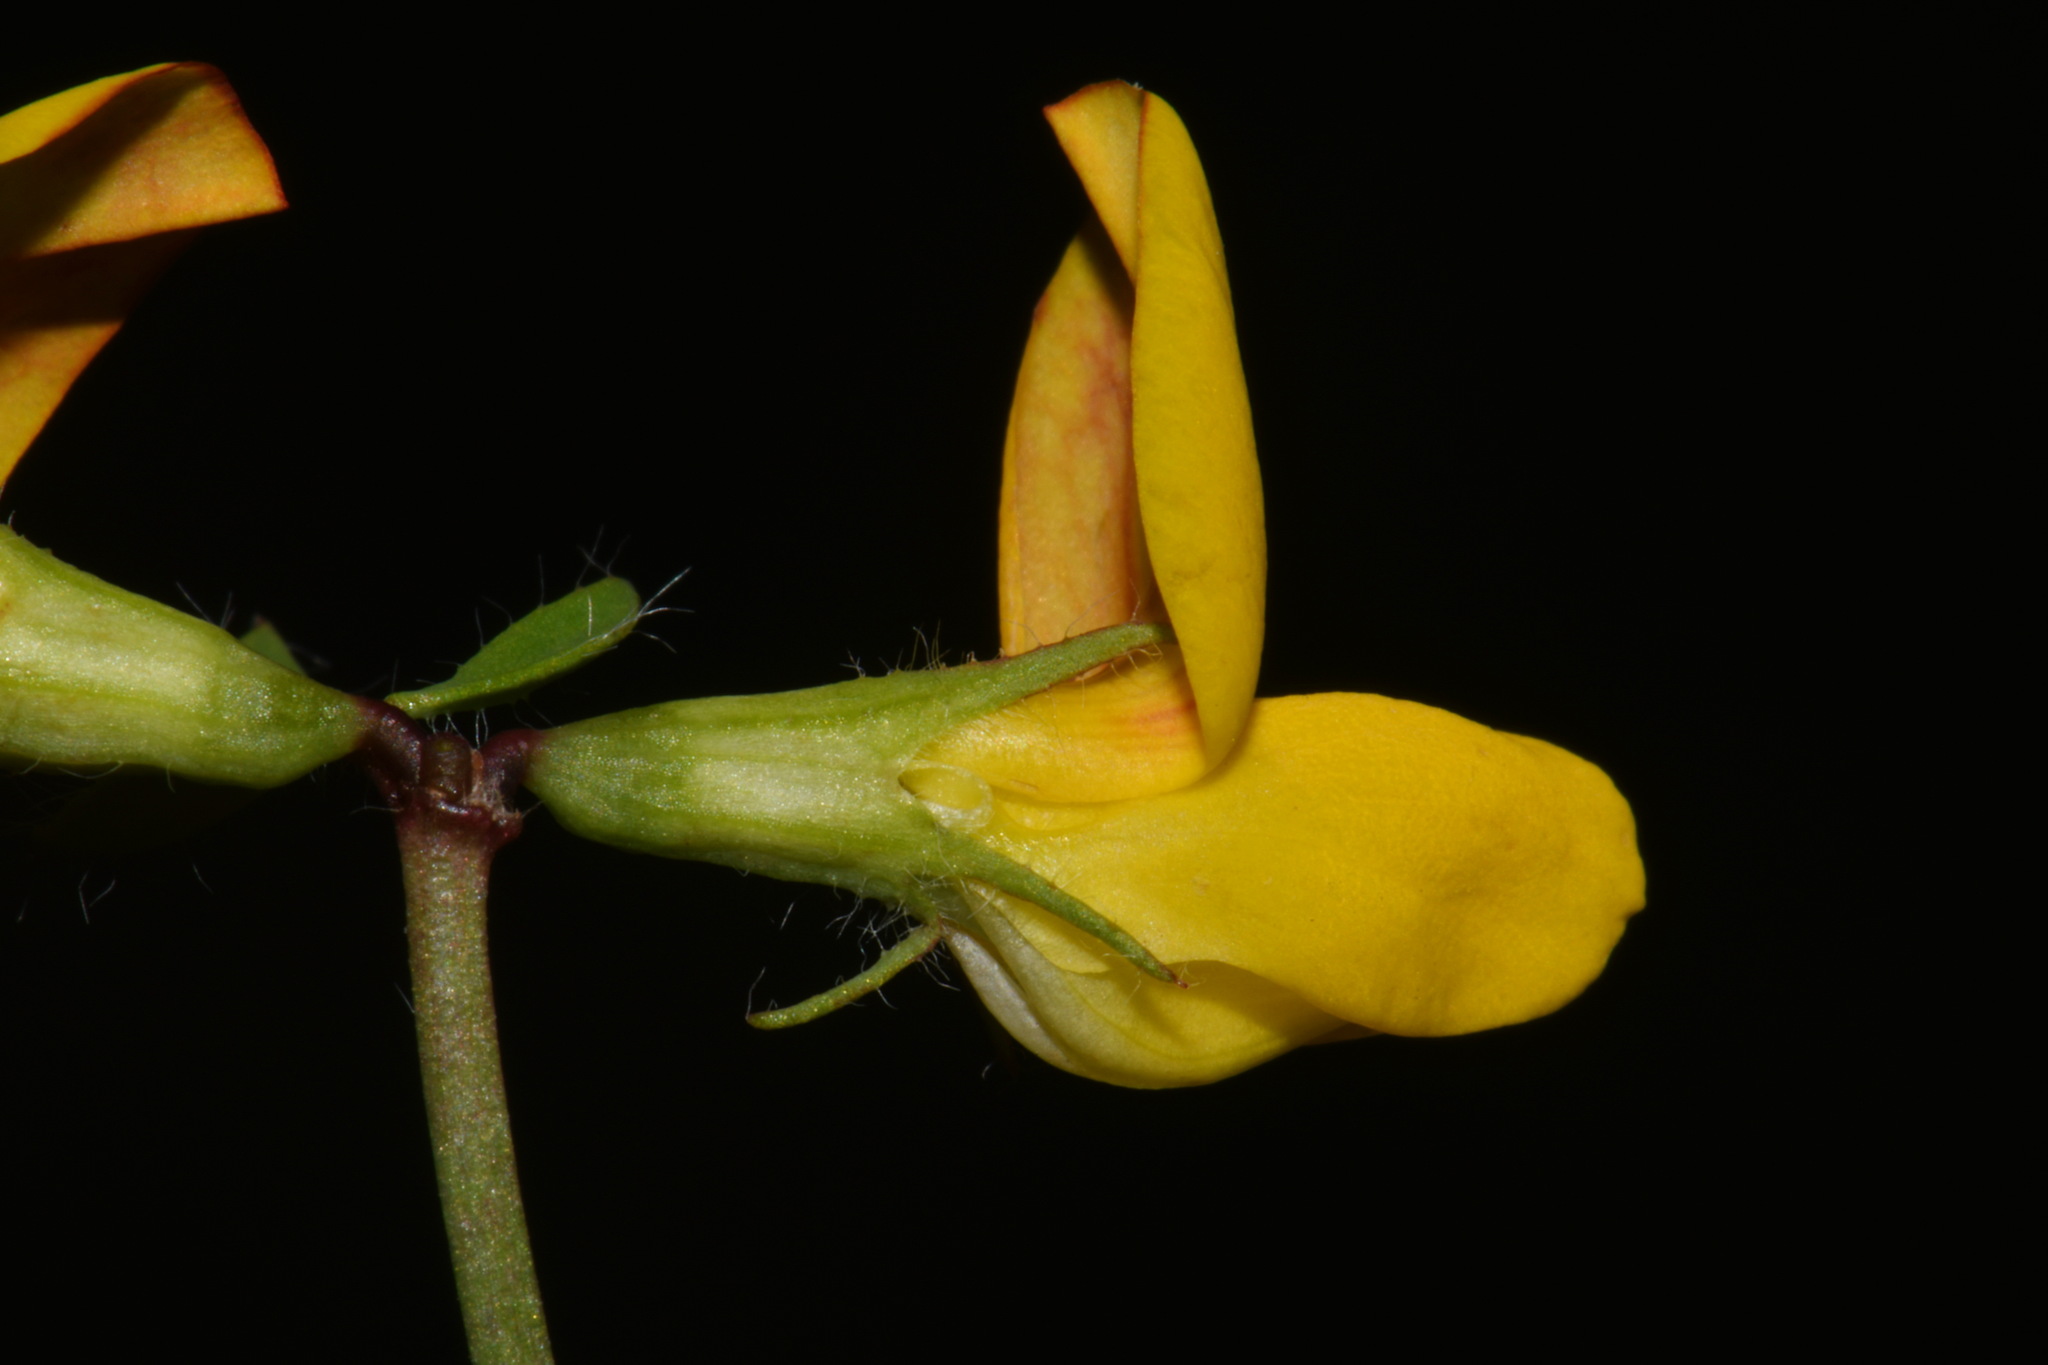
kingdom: Plantae
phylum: Tracheophyta
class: Magnoliopsida
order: Fabales
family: Fabaceae
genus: Lotus
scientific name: Lotus pedunculatus
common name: Greater birdsfoot-trefoil
